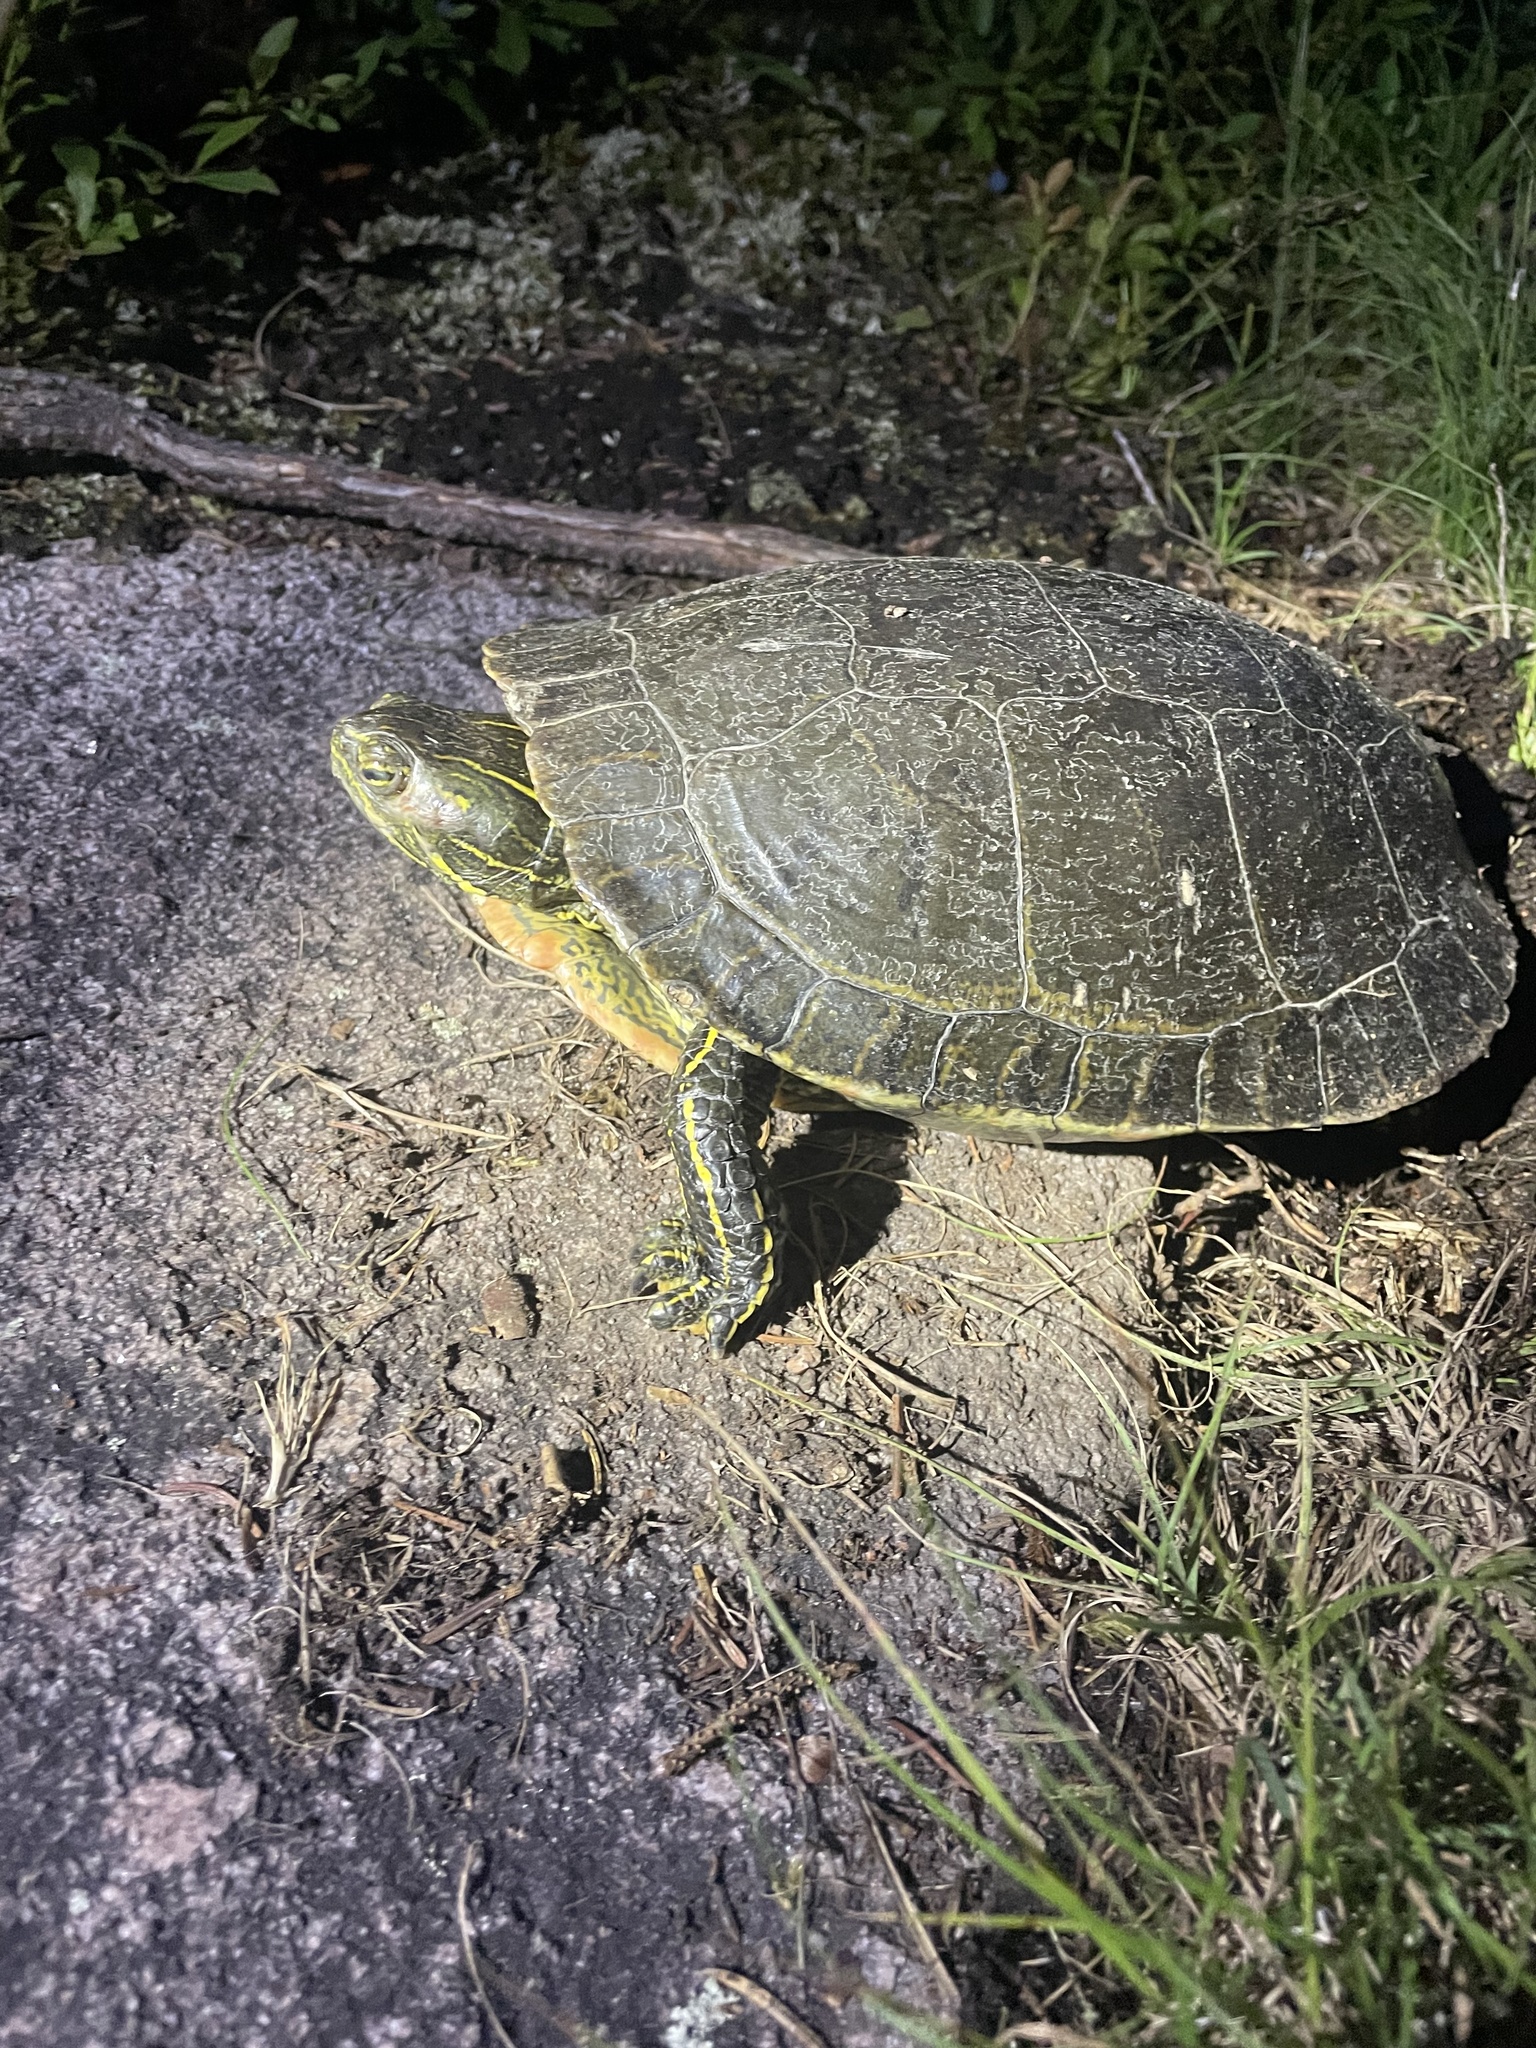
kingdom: Animalia
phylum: Chordata
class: Testudines
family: Emydidae
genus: Chrysemys
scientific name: Chrysemys picta
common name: Painted turtle
